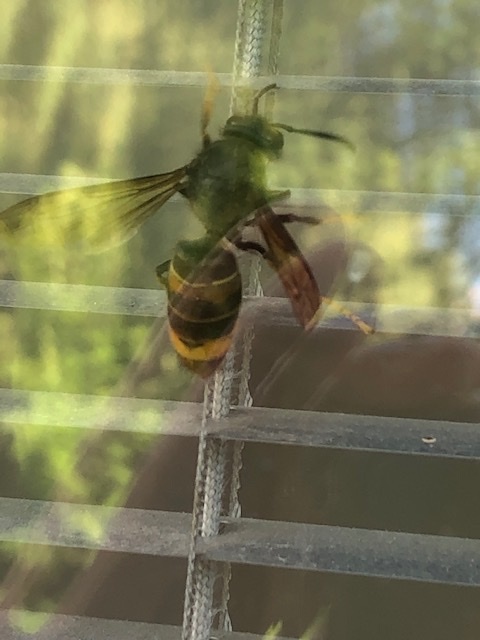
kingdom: Animalia
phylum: Arthropoda
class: Insecta
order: Hymenoptera
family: Vespidae
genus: Vespa
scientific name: Vespa velutina
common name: Asian hornet
